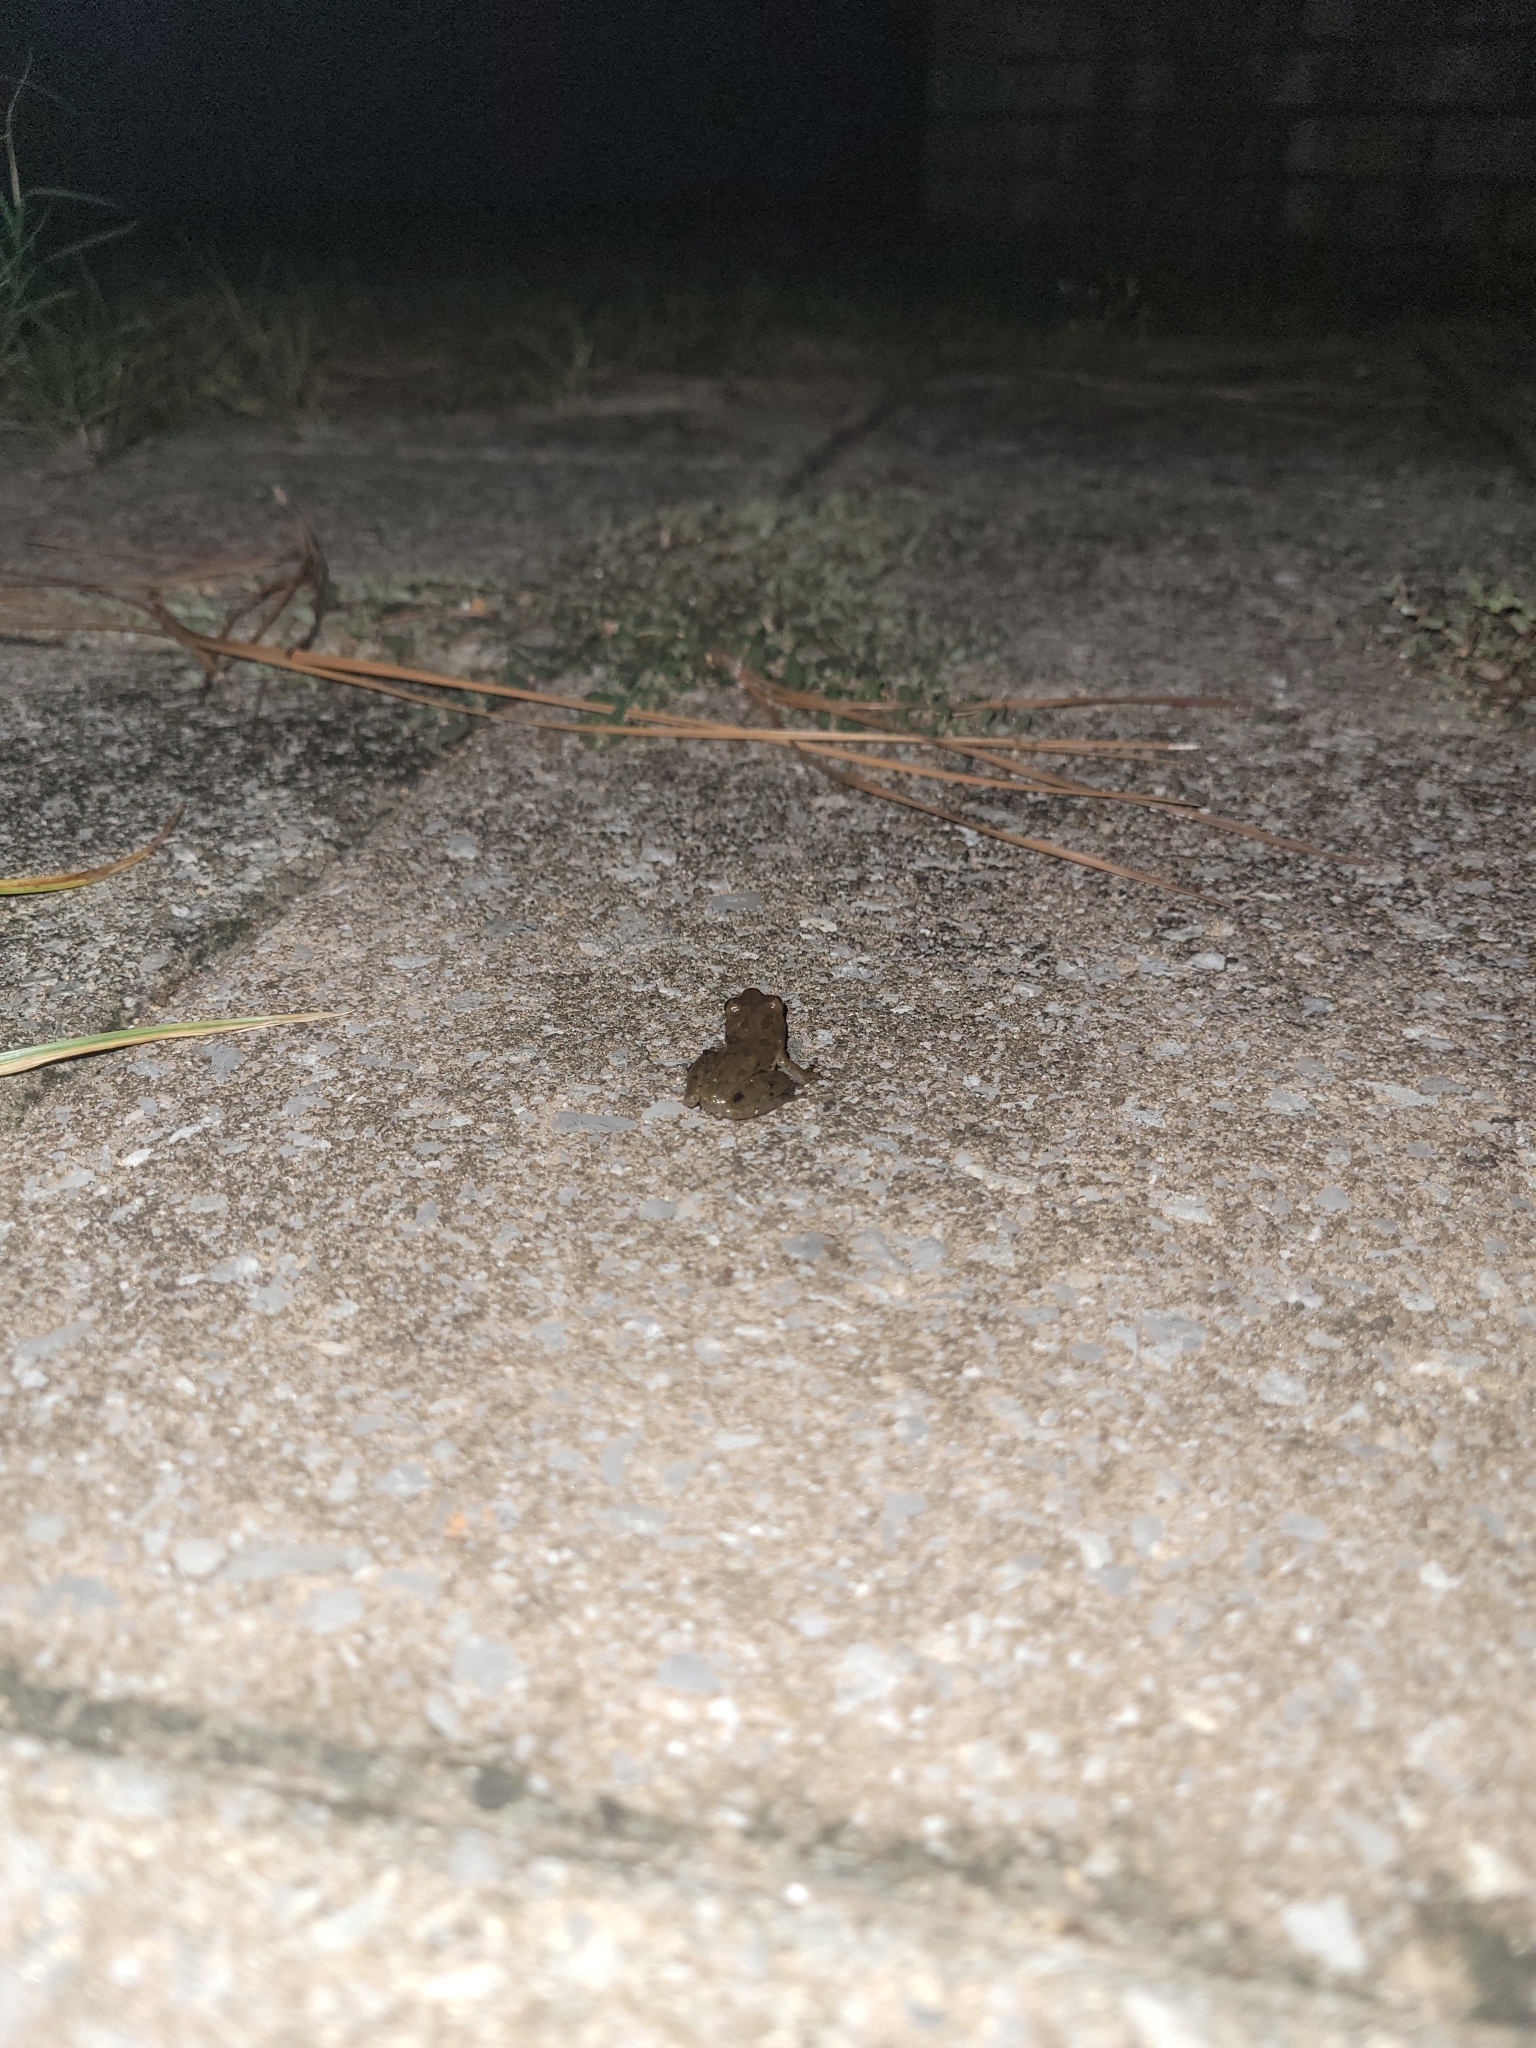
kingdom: Animalia
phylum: Chordata
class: Amphibia
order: Anura
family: Hylidae
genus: Dryophytes
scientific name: Dryophytes squirellus
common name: Squirrel treefrog
